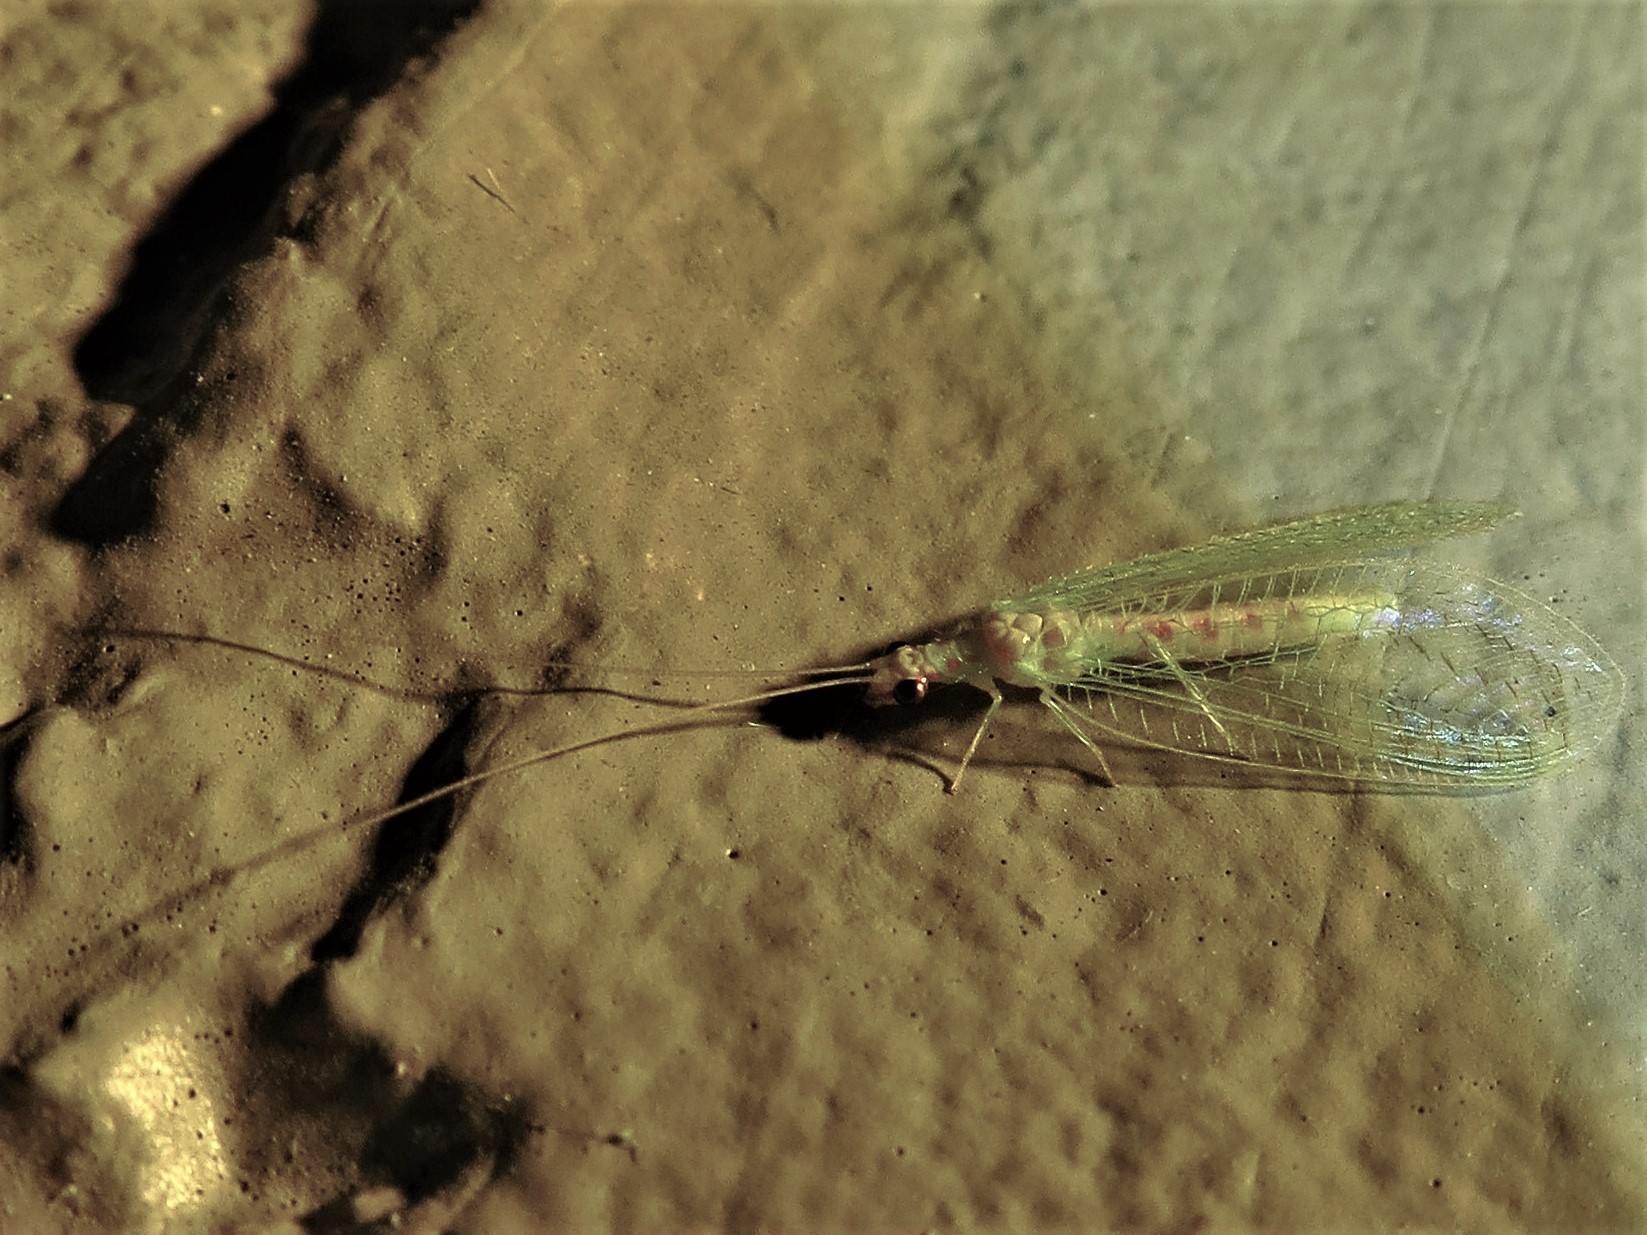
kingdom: Animalia
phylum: Arthropoda
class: Insecta
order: Neuroptera
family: Chrysopidae
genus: Chrysopa
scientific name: Chrysopa quadripunctata
